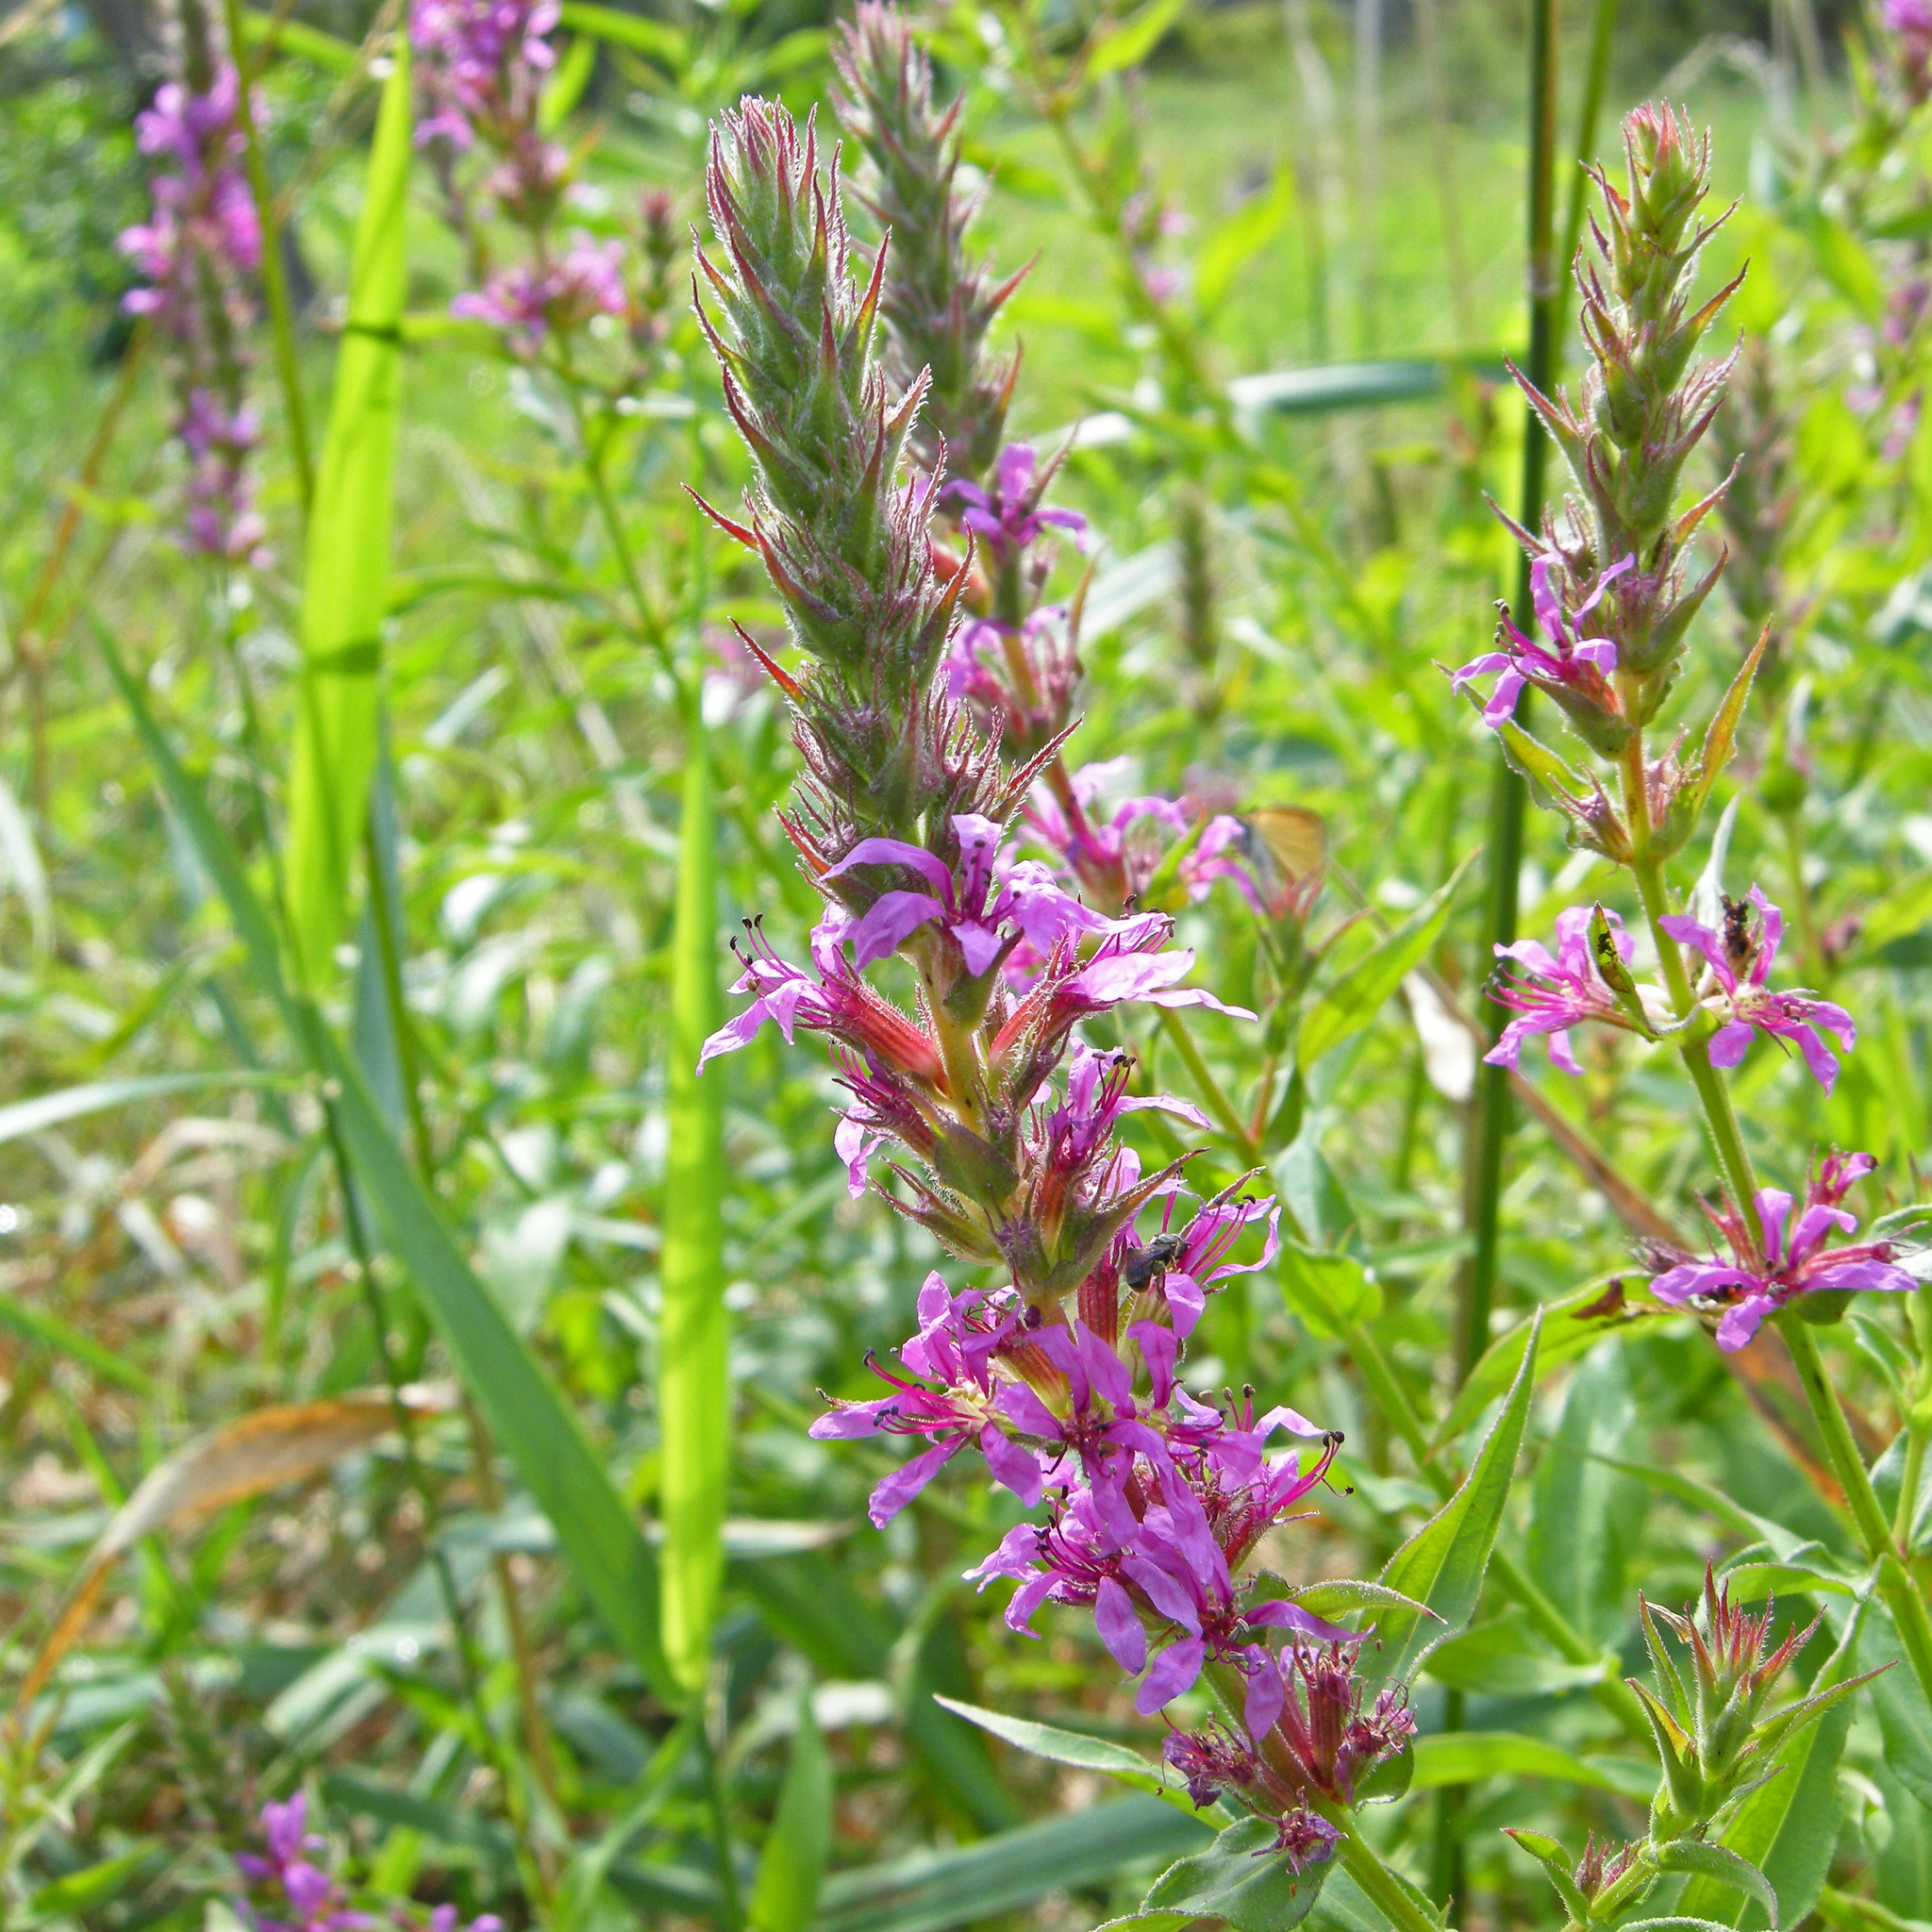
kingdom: Plantae
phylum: Tracheophyta
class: Magnoliopsida
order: Myrtales
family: Lythraceae
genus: Lythrum
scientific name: Lythrum salicaria
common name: Purple loosestrife
